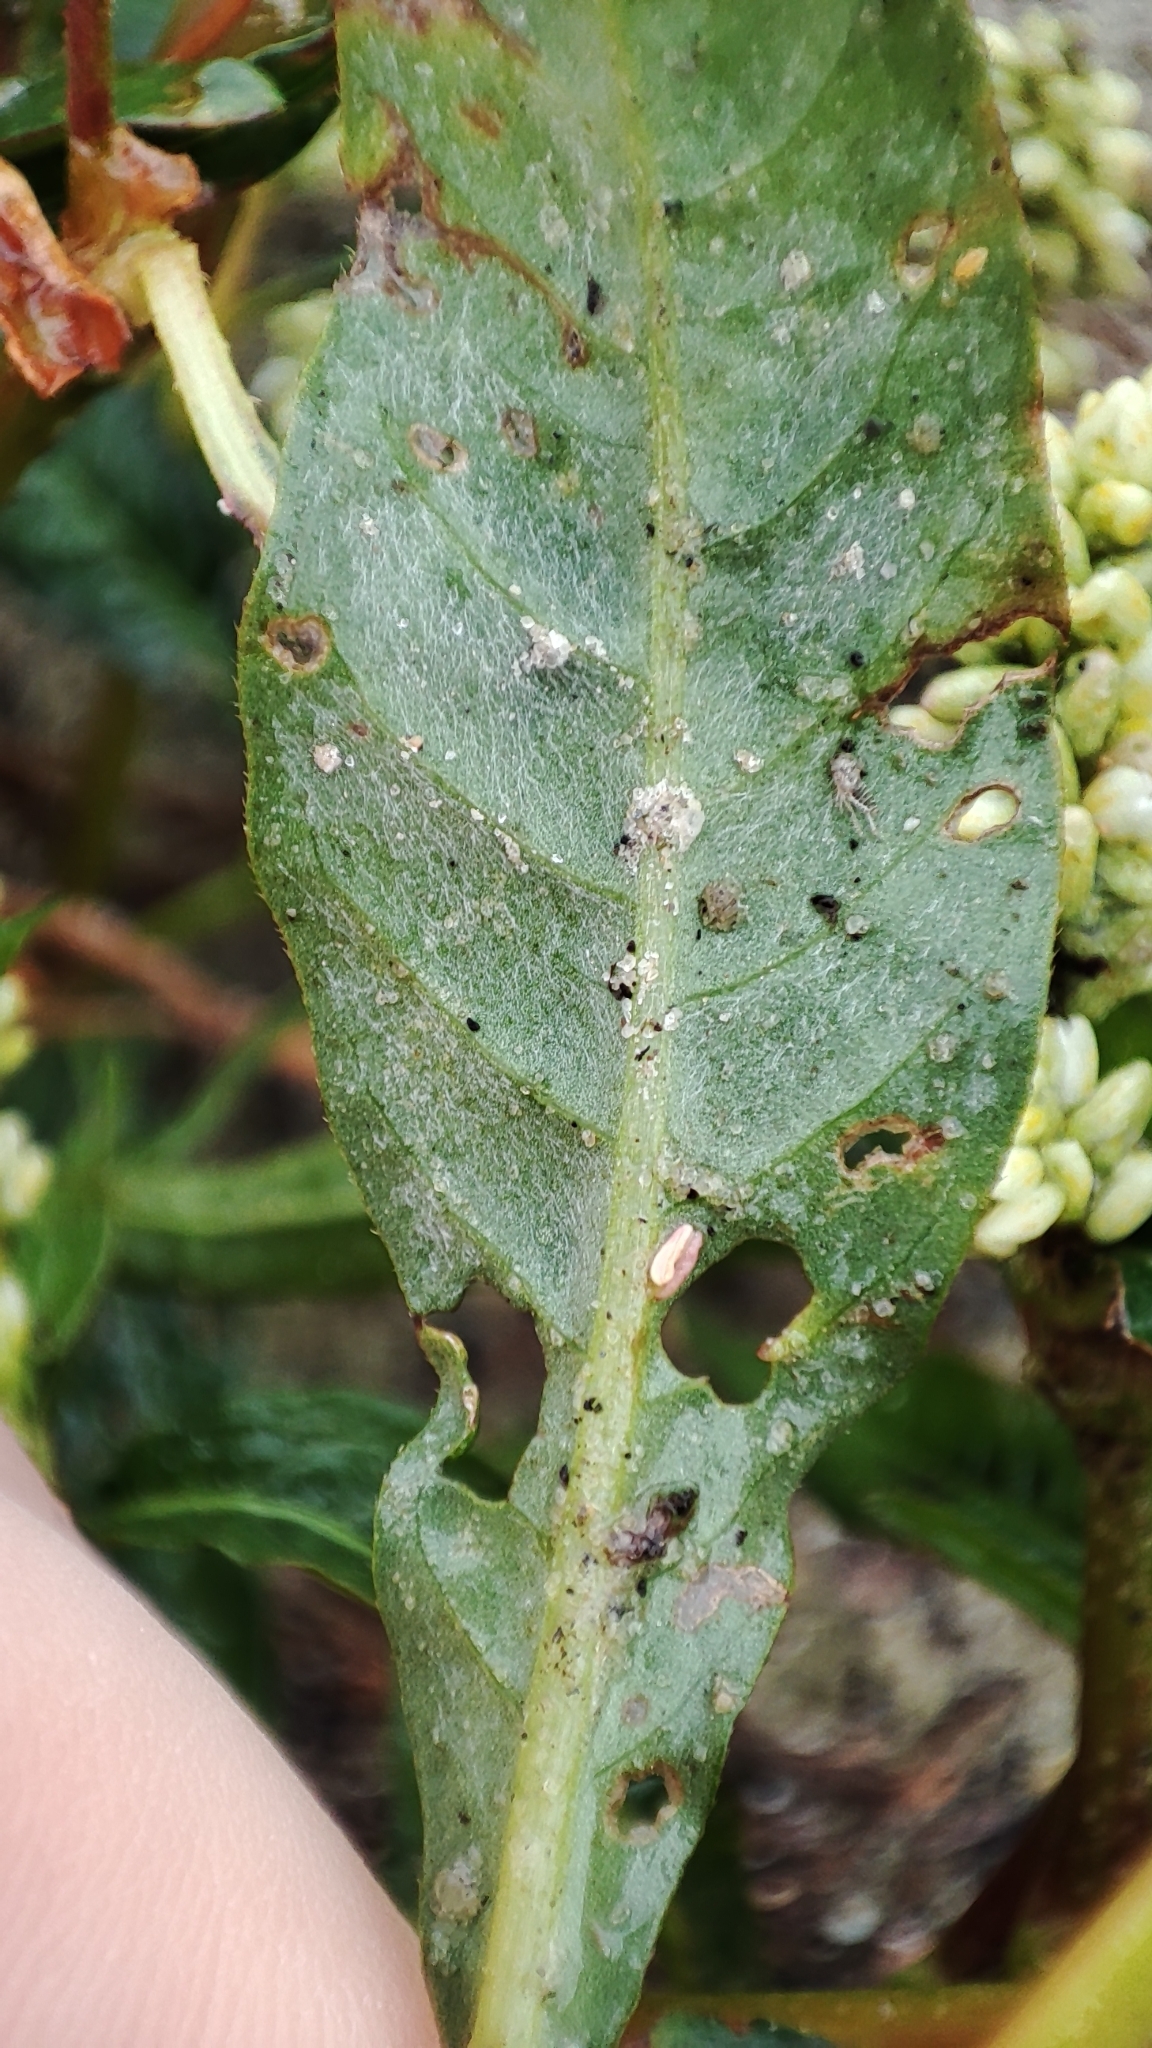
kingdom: Plantae
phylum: Tracheophyta
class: Magnoliopsida
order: Caryophyllales
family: Polygonaceae
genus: Persicaria
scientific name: Persicaria lapathifolia
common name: Curlytop knotweed
